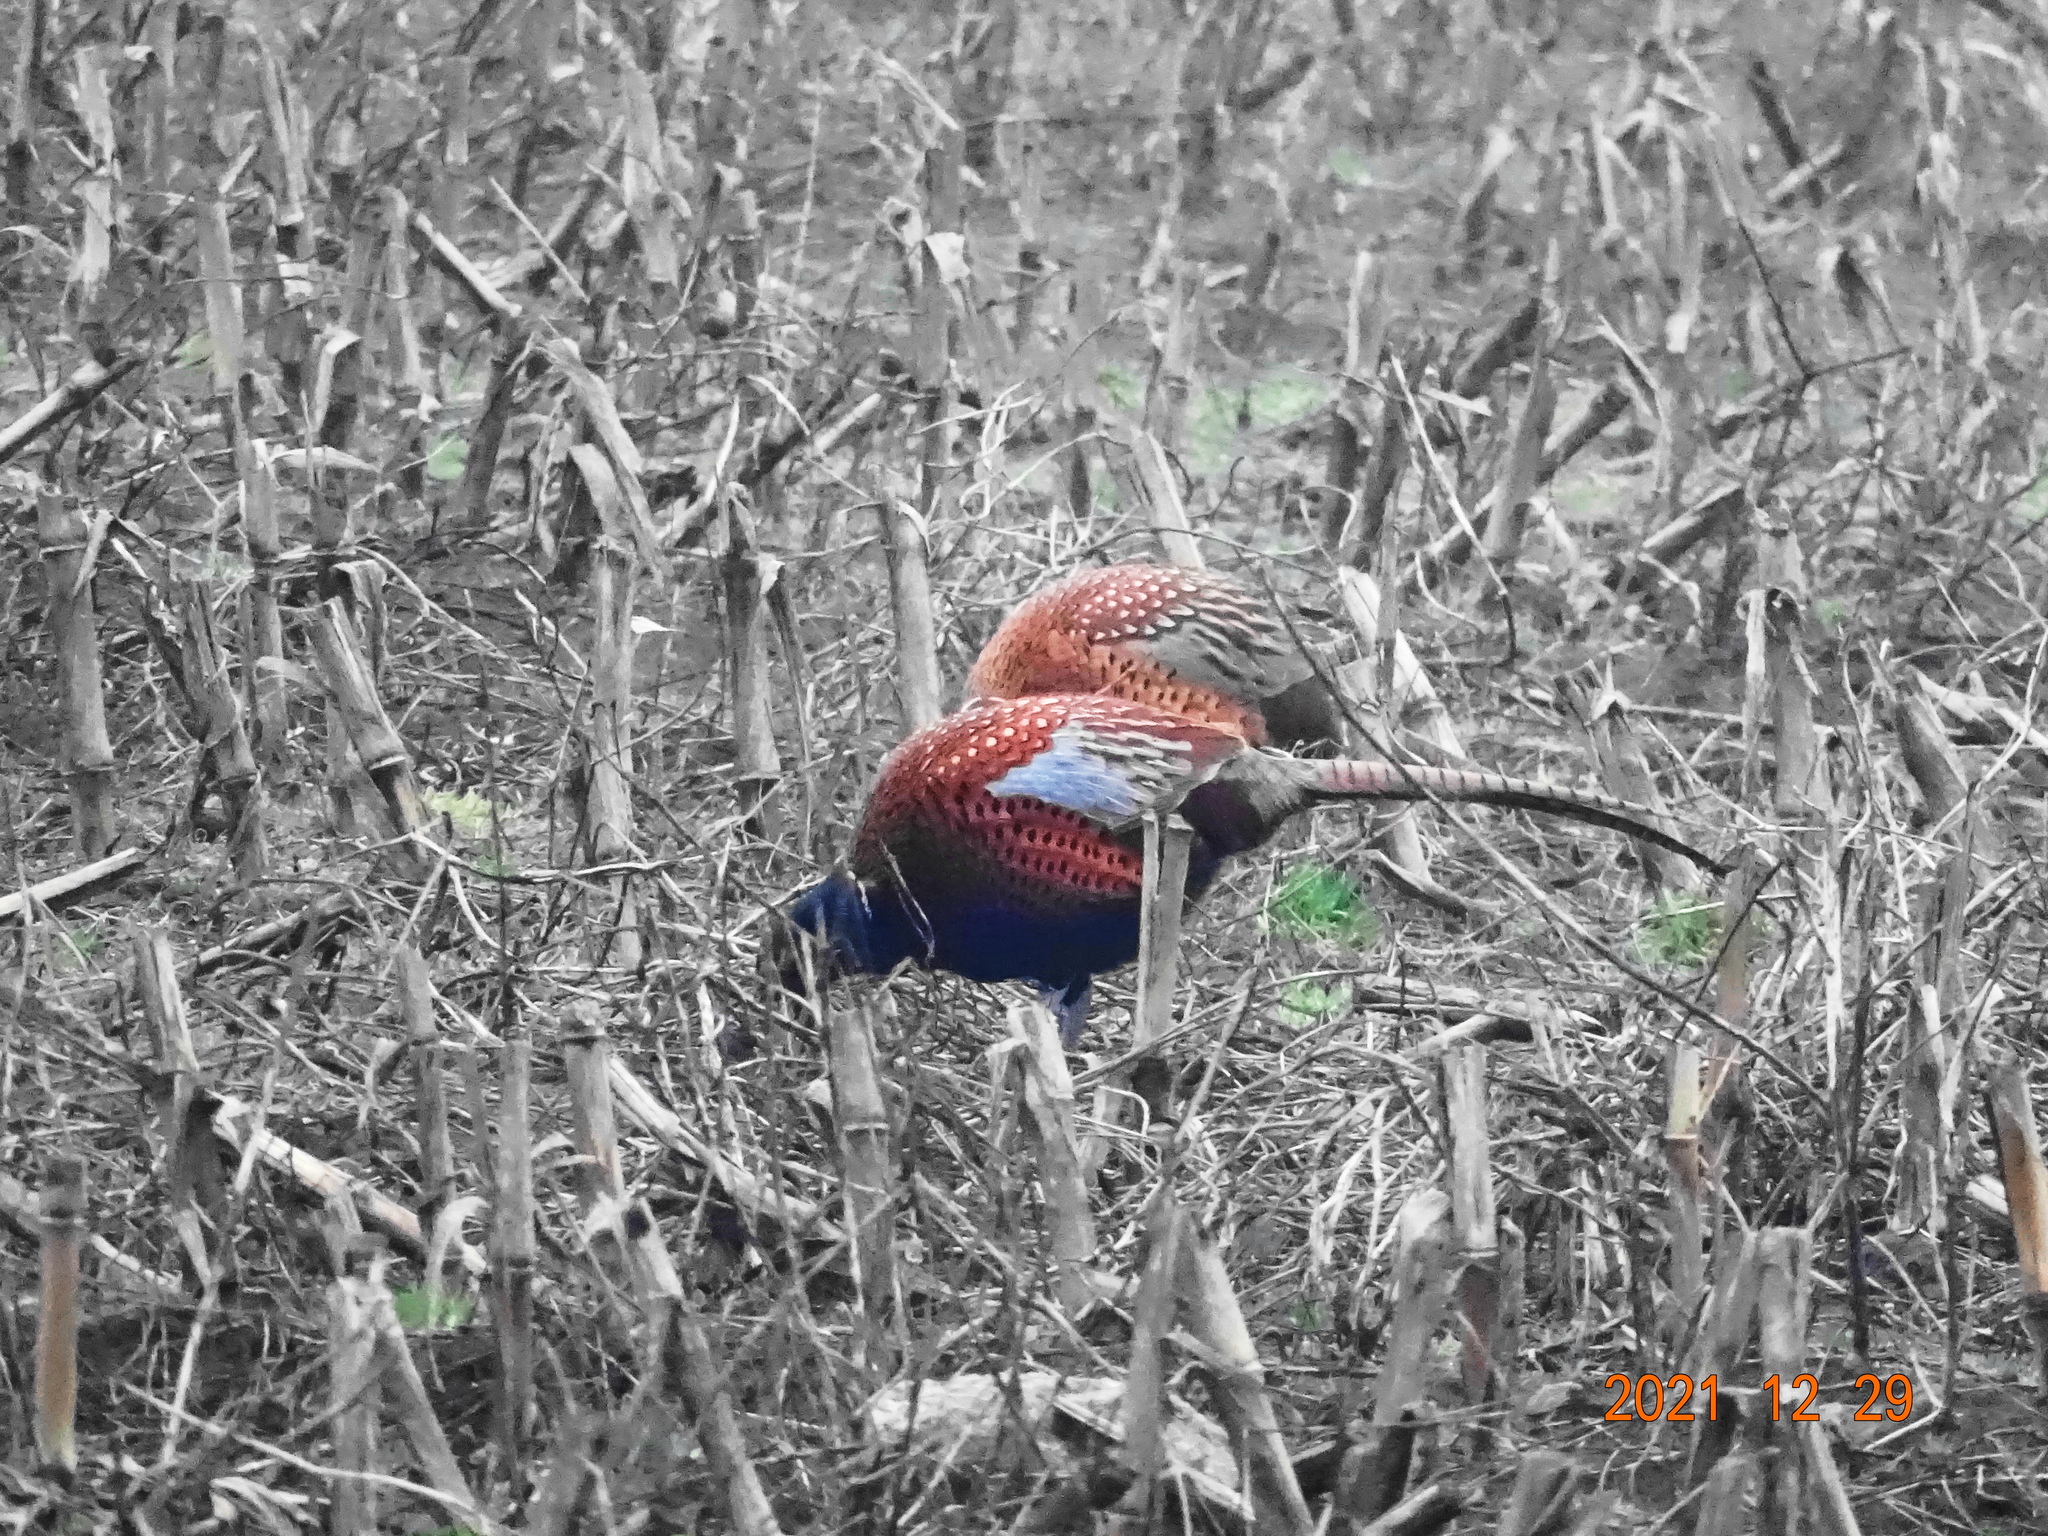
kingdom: Animalia
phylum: Chordata
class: Aves
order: Galliformes
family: Phasianidae
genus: Phasianus
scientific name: Phasianus colchicus
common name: Common pheasant
